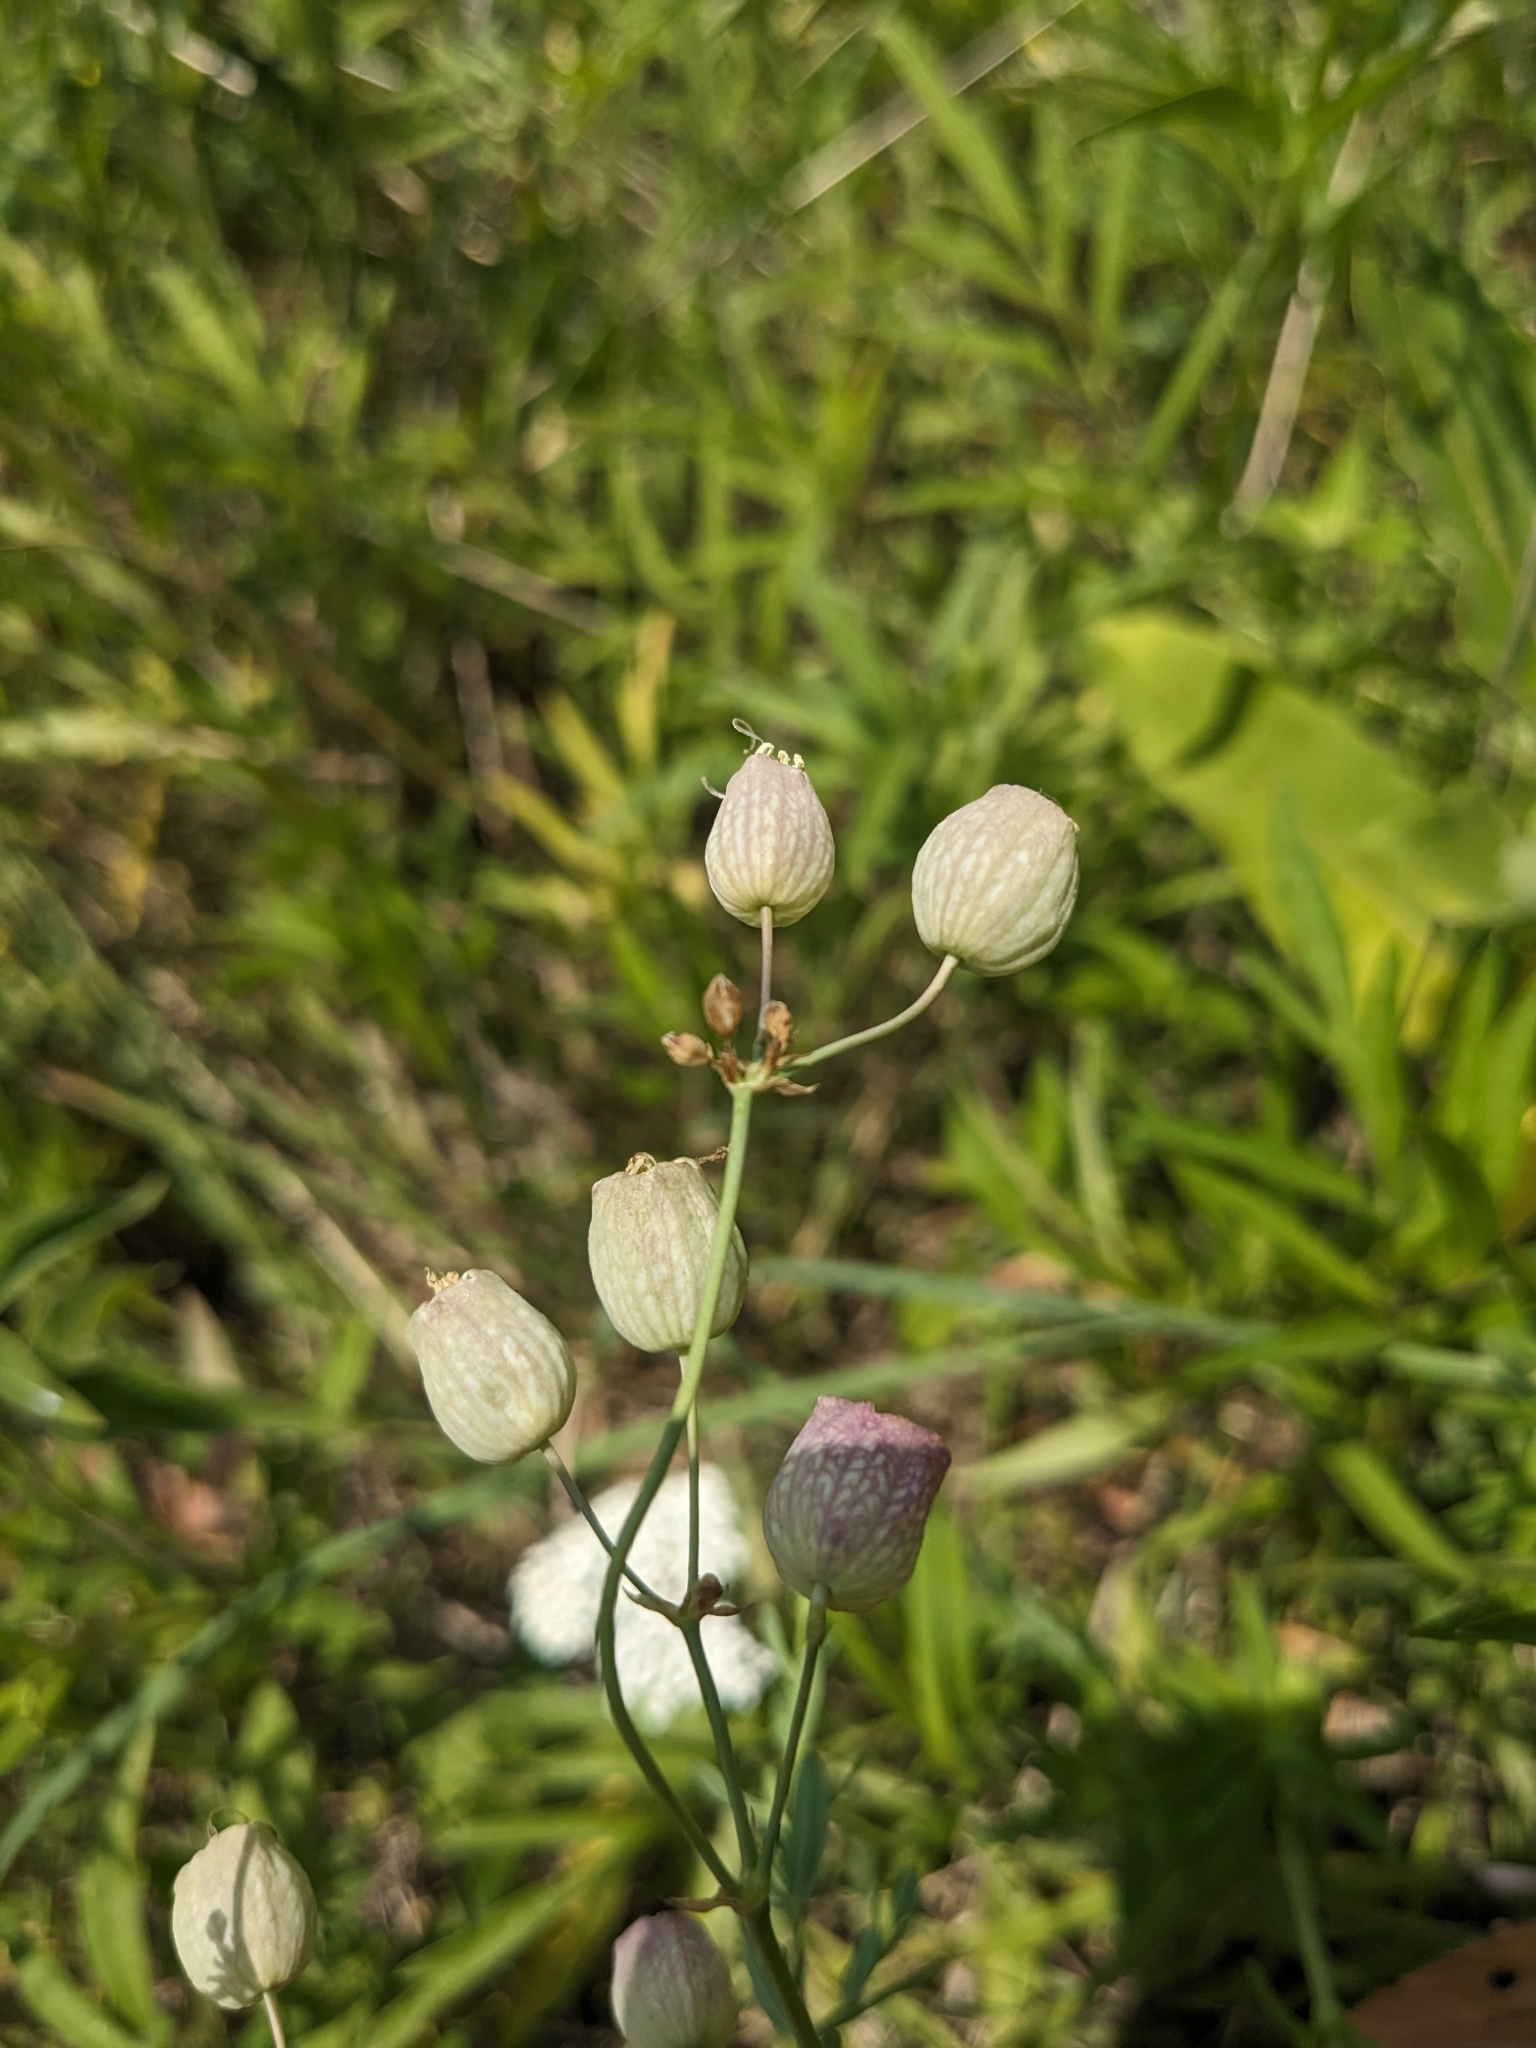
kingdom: Plantae
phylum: Tracheophyta
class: Magnoliopsida
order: Caryophyllales
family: Caryophyllaceae
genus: Silene
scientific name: Silene vulgaris
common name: Bladder campion
